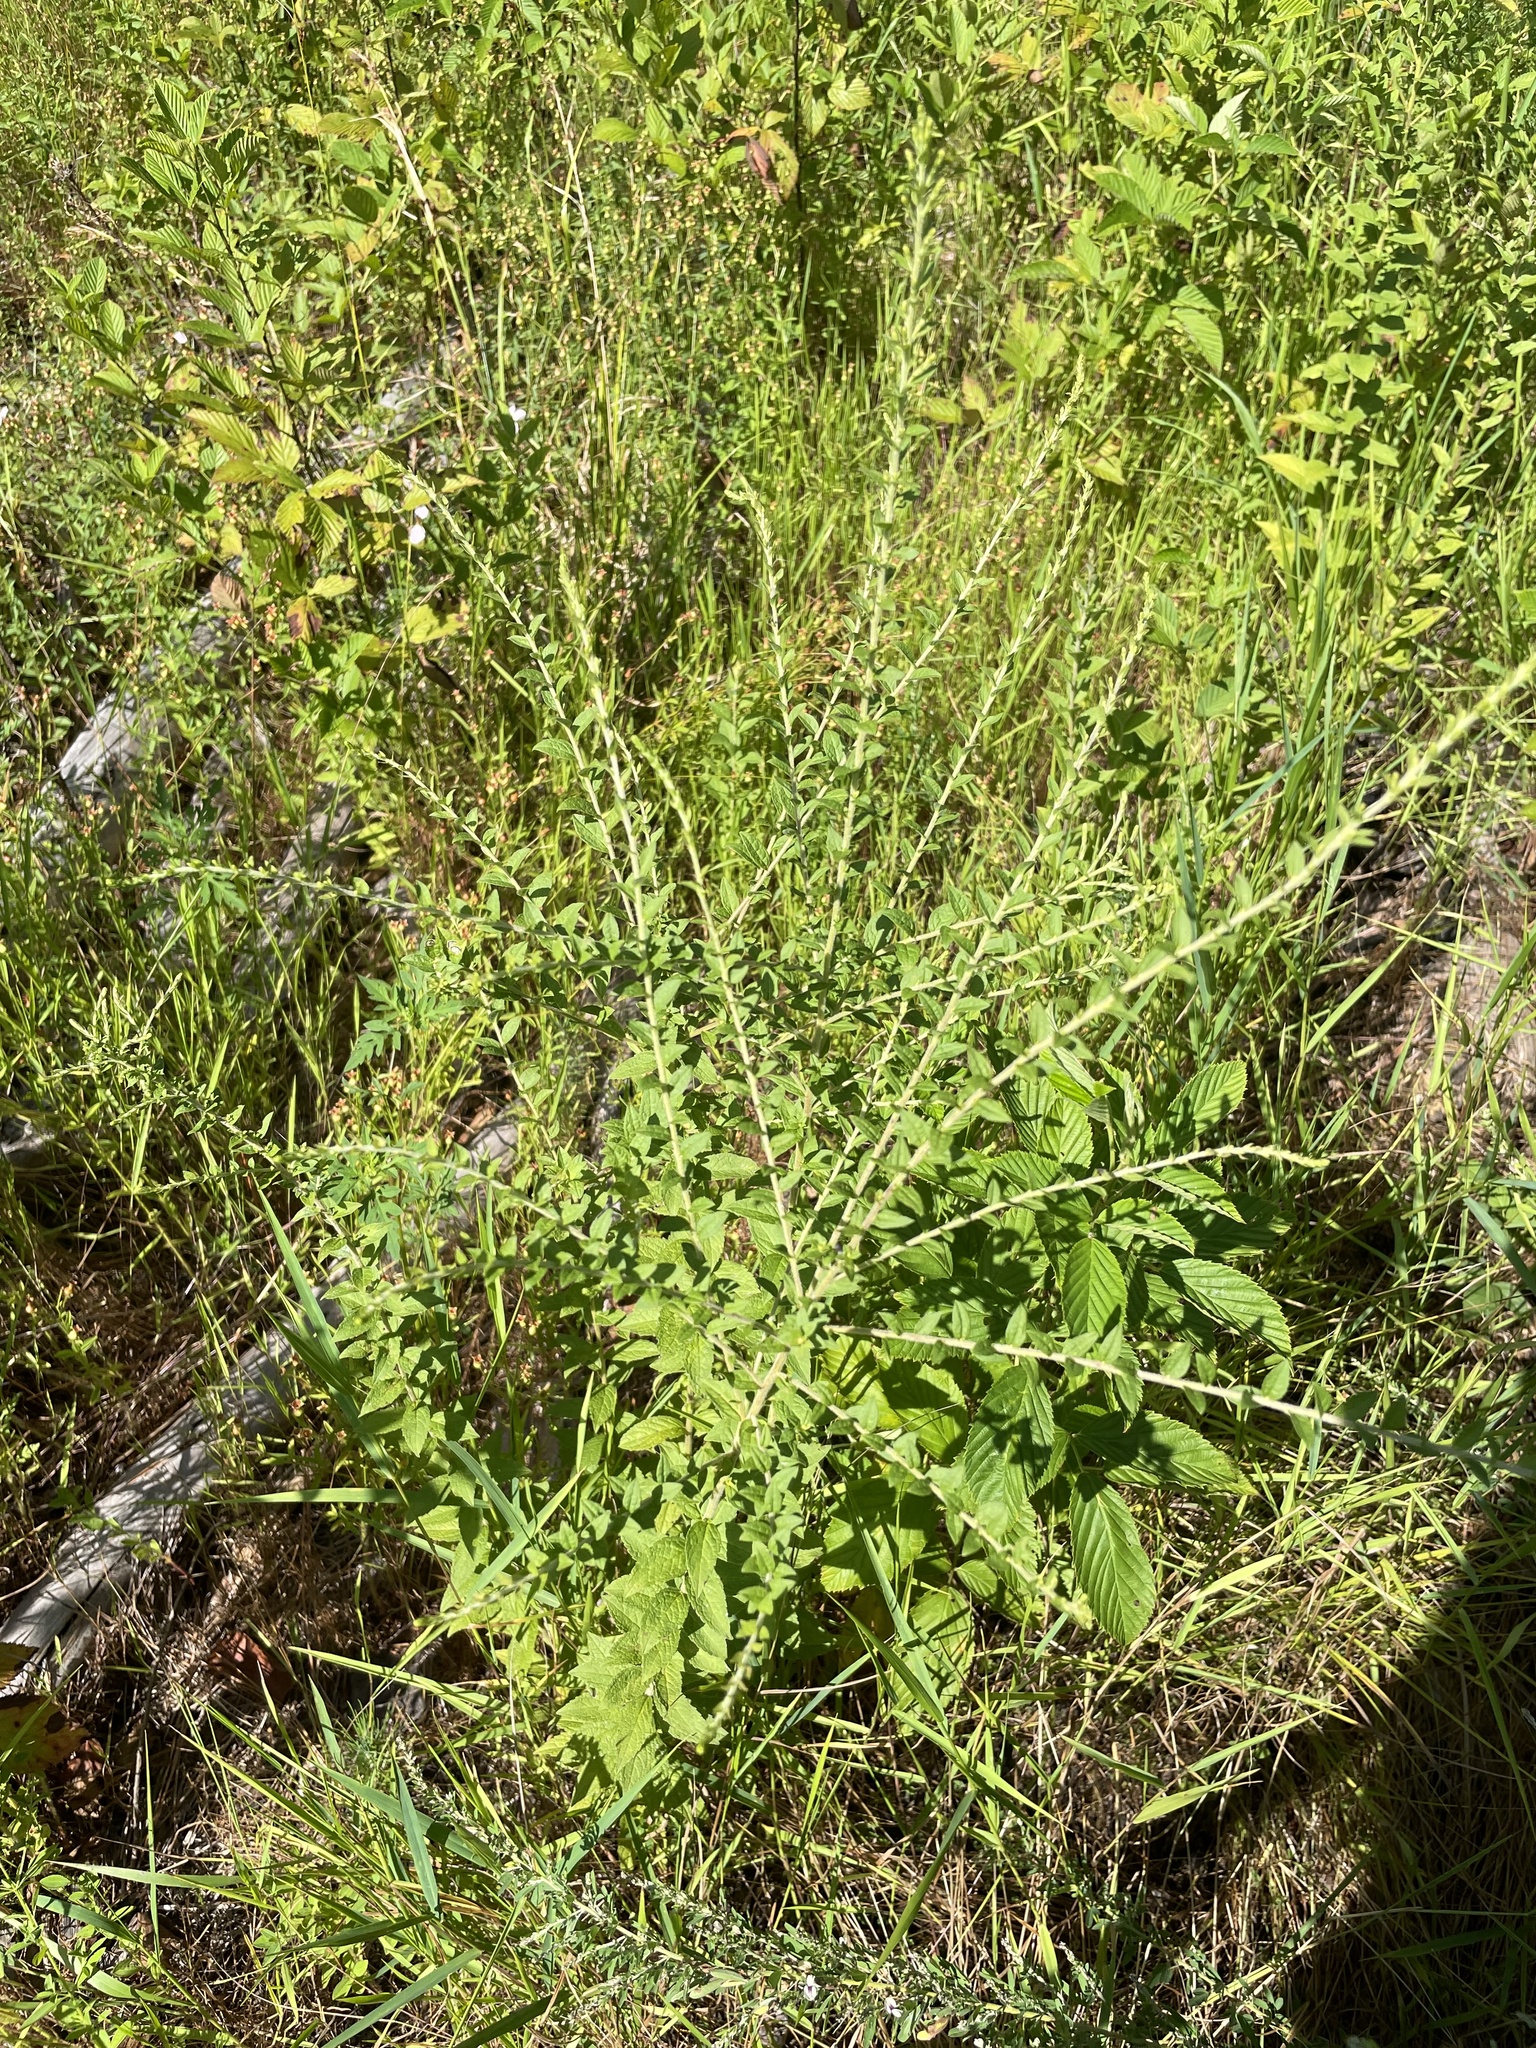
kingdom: Plantae
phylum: Tracheophyta
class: Magnoliopsida
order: Asterales
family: Asteraceae
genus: Solidago
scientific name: Solidago rugosa
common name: Rough-stemmed goldenrod
